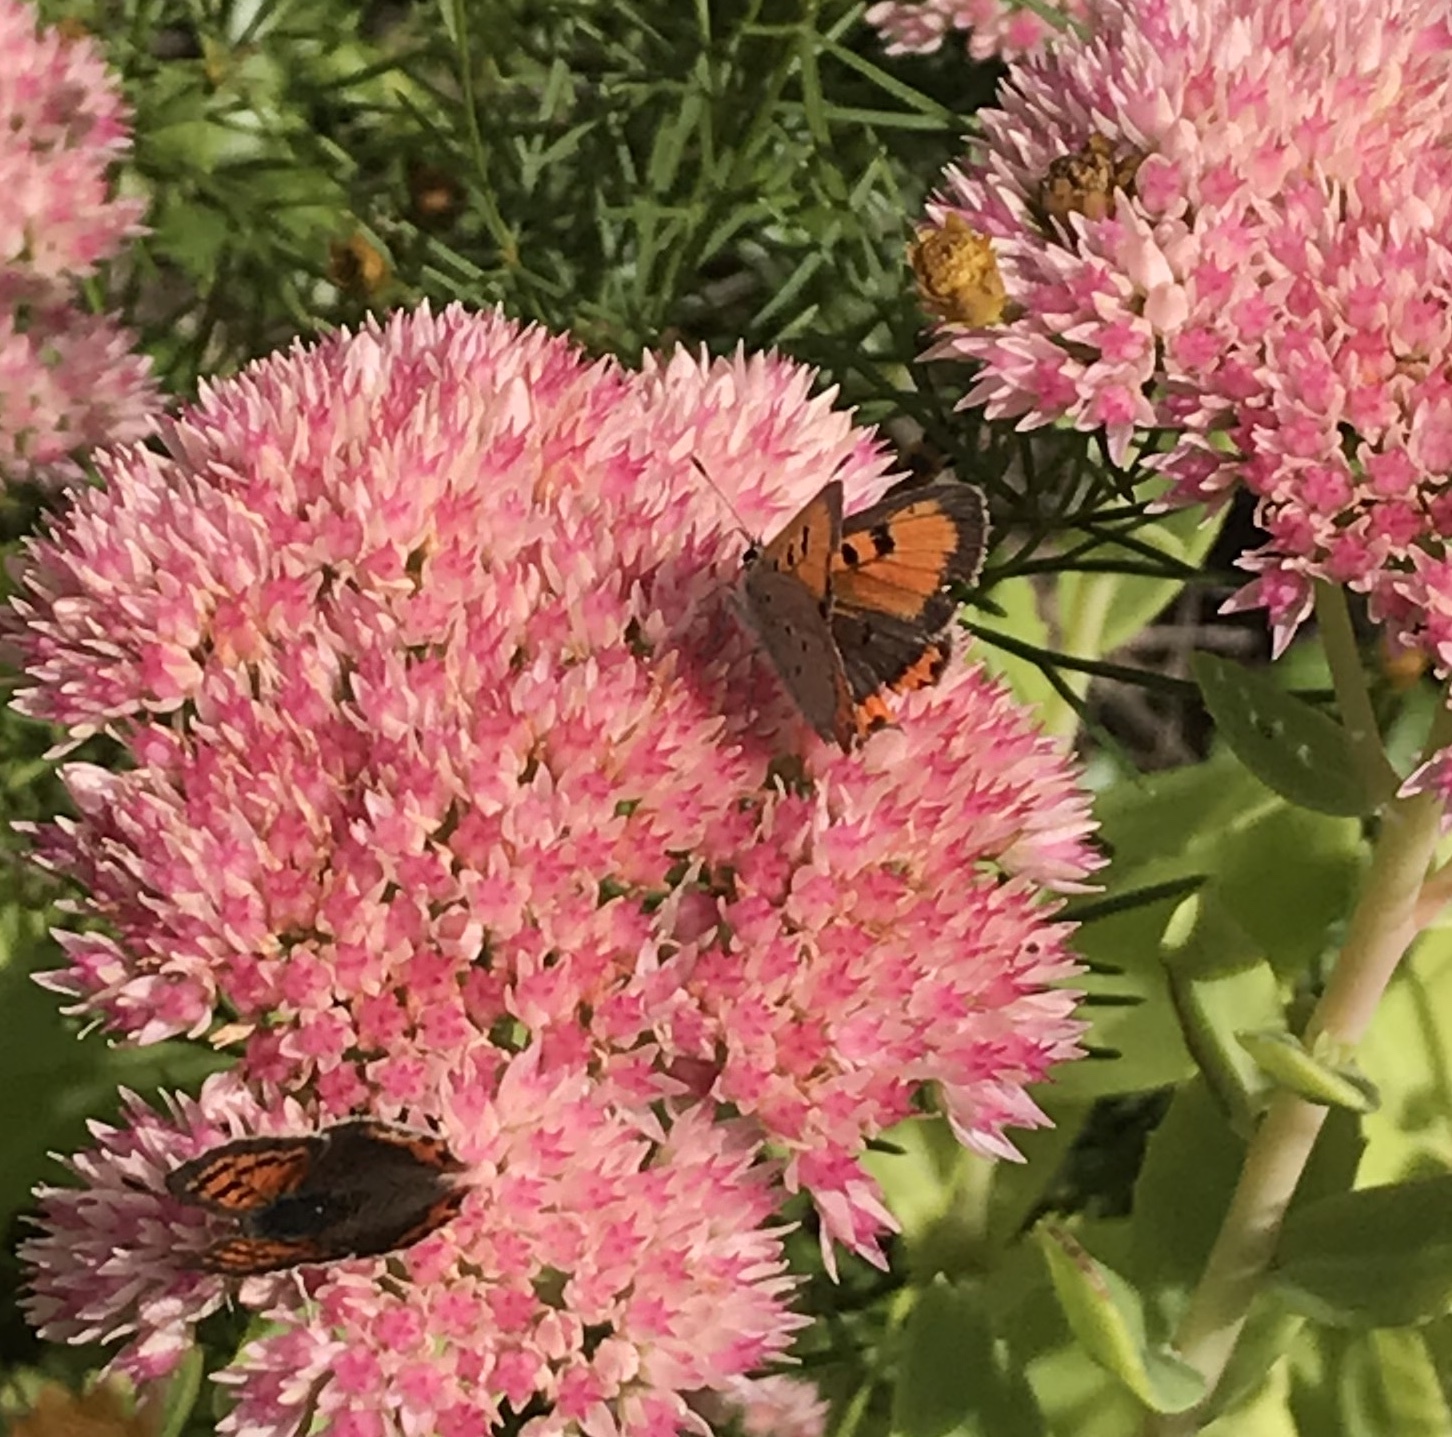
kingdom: Animalia
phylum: Arthropoda
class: Insecta
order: Lepidoptera
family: Lycaenidae
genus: Lycaena
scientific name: Lycaena hypophlaeas
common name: American copper
